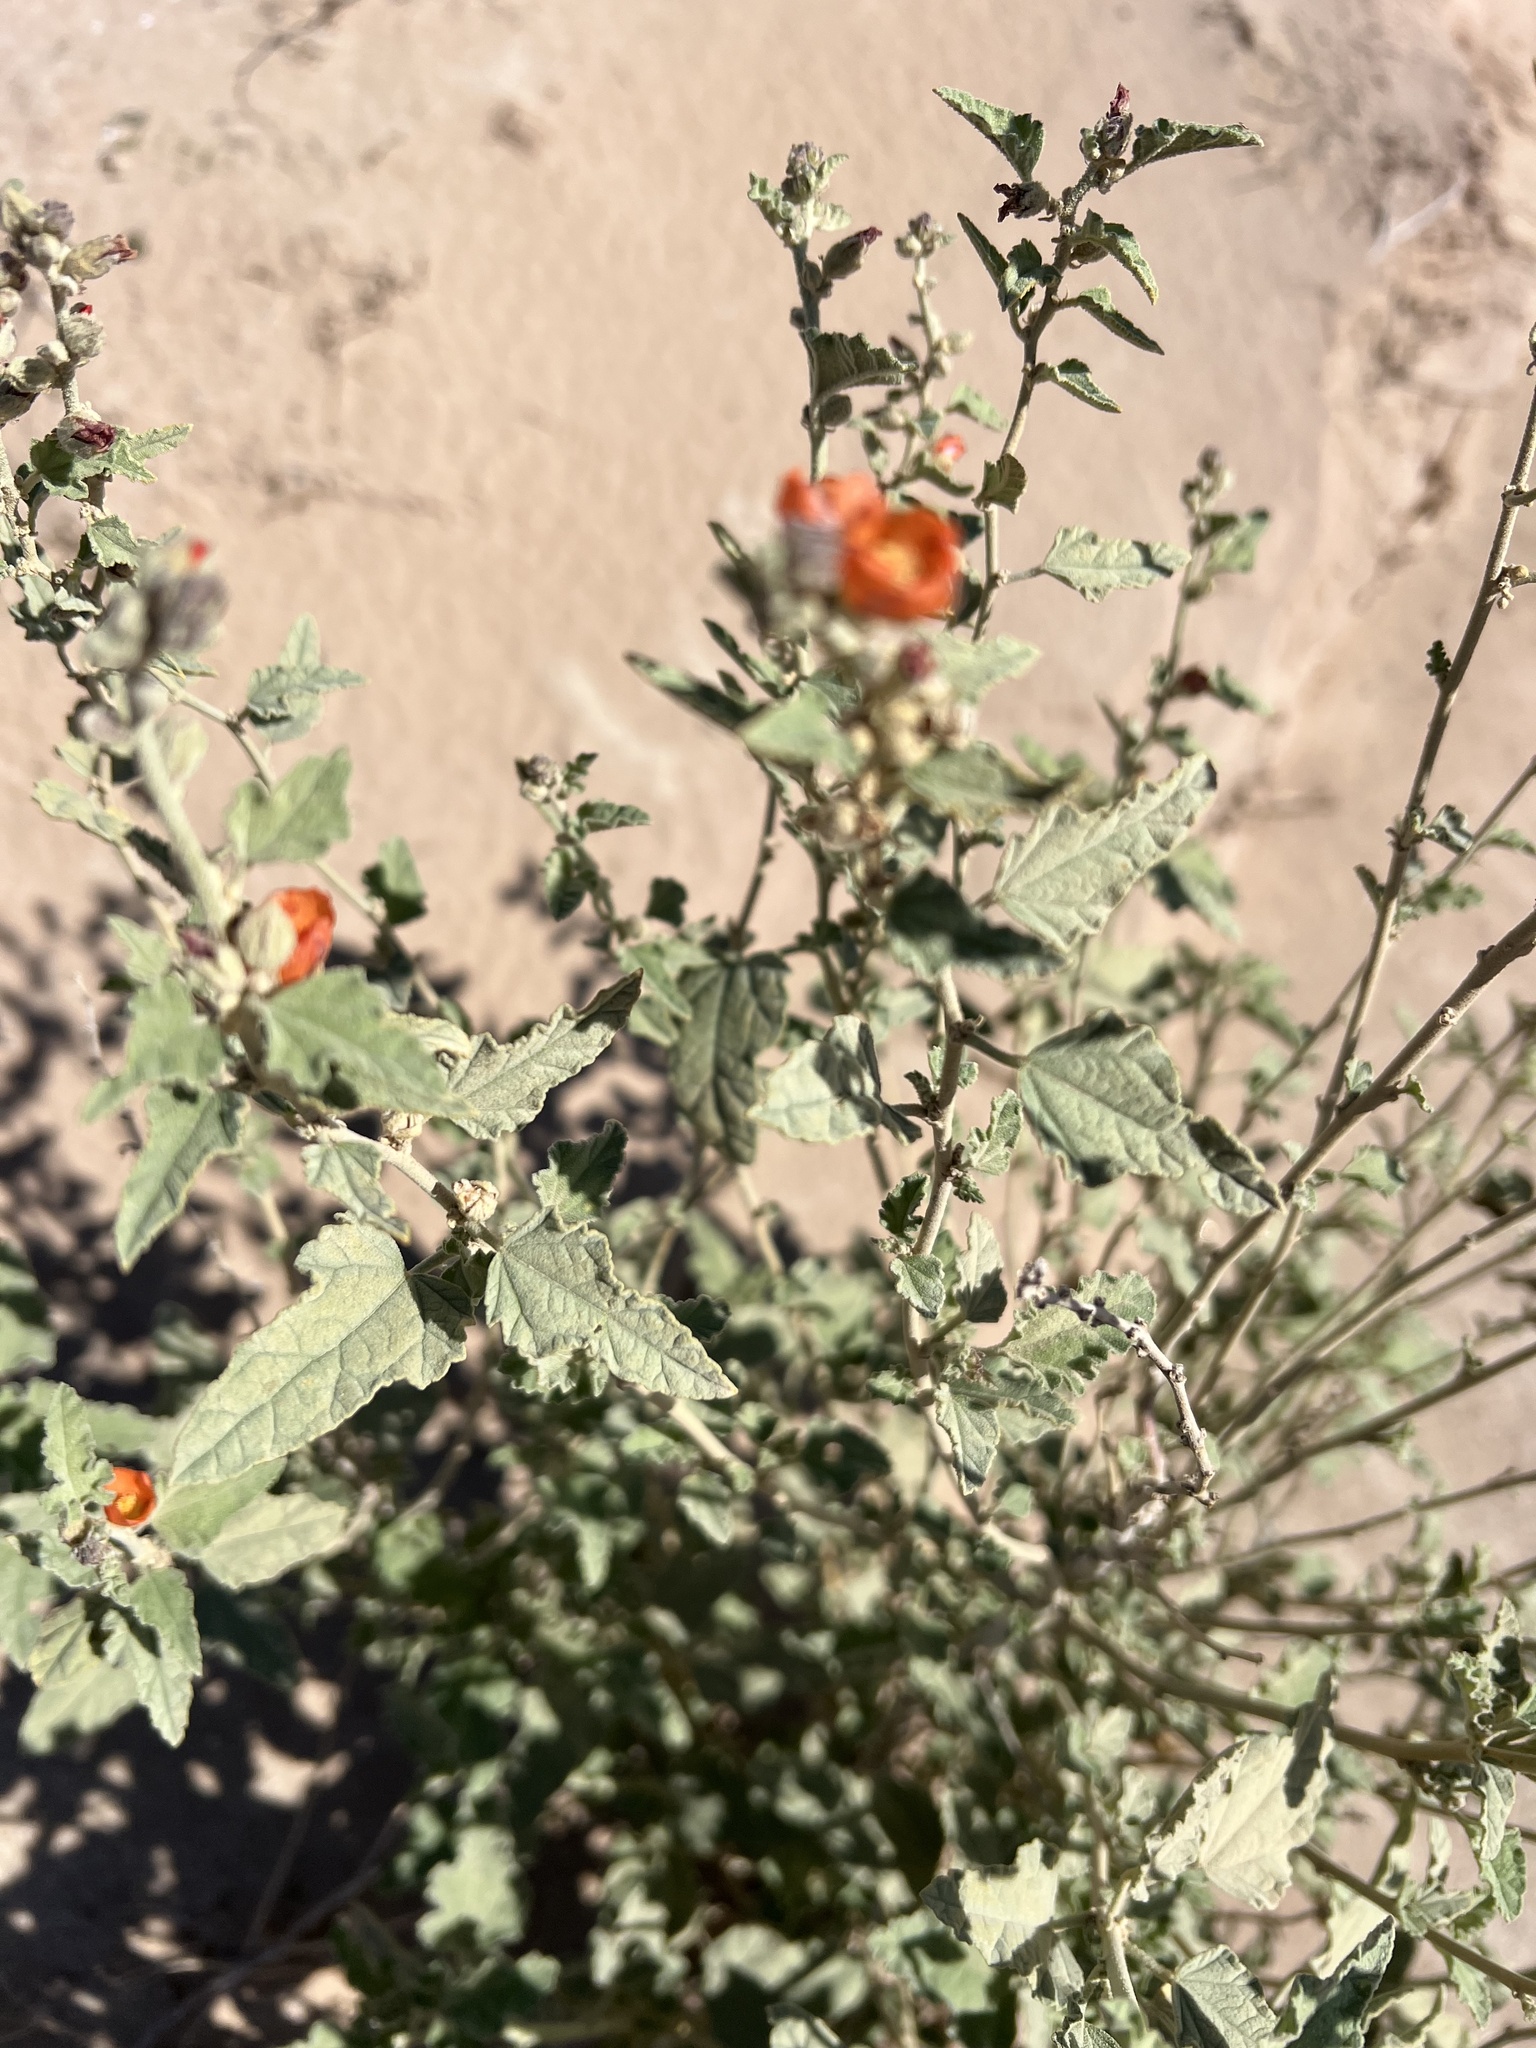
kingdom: Plantae
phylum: Tracheophyta
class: Magnoliopsida
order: Malvales
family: Malvaceae
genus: Sphaeralcea
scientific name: Sphaeralcea orcuttii
